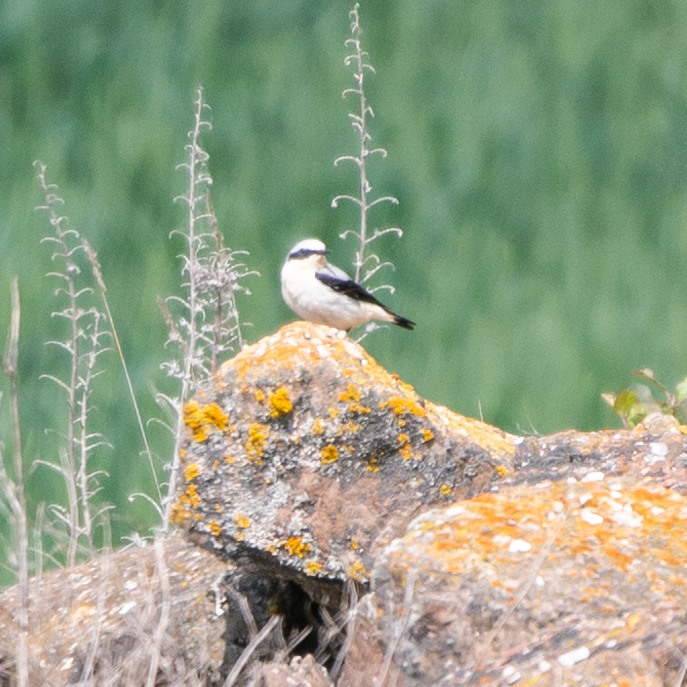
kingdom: Animalia
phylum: Chordata
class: Aves
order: Passeriformes
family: Muscicapidae
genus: Oenanthe
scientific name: Oenanthe oenanthe
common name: Northern wheatear
